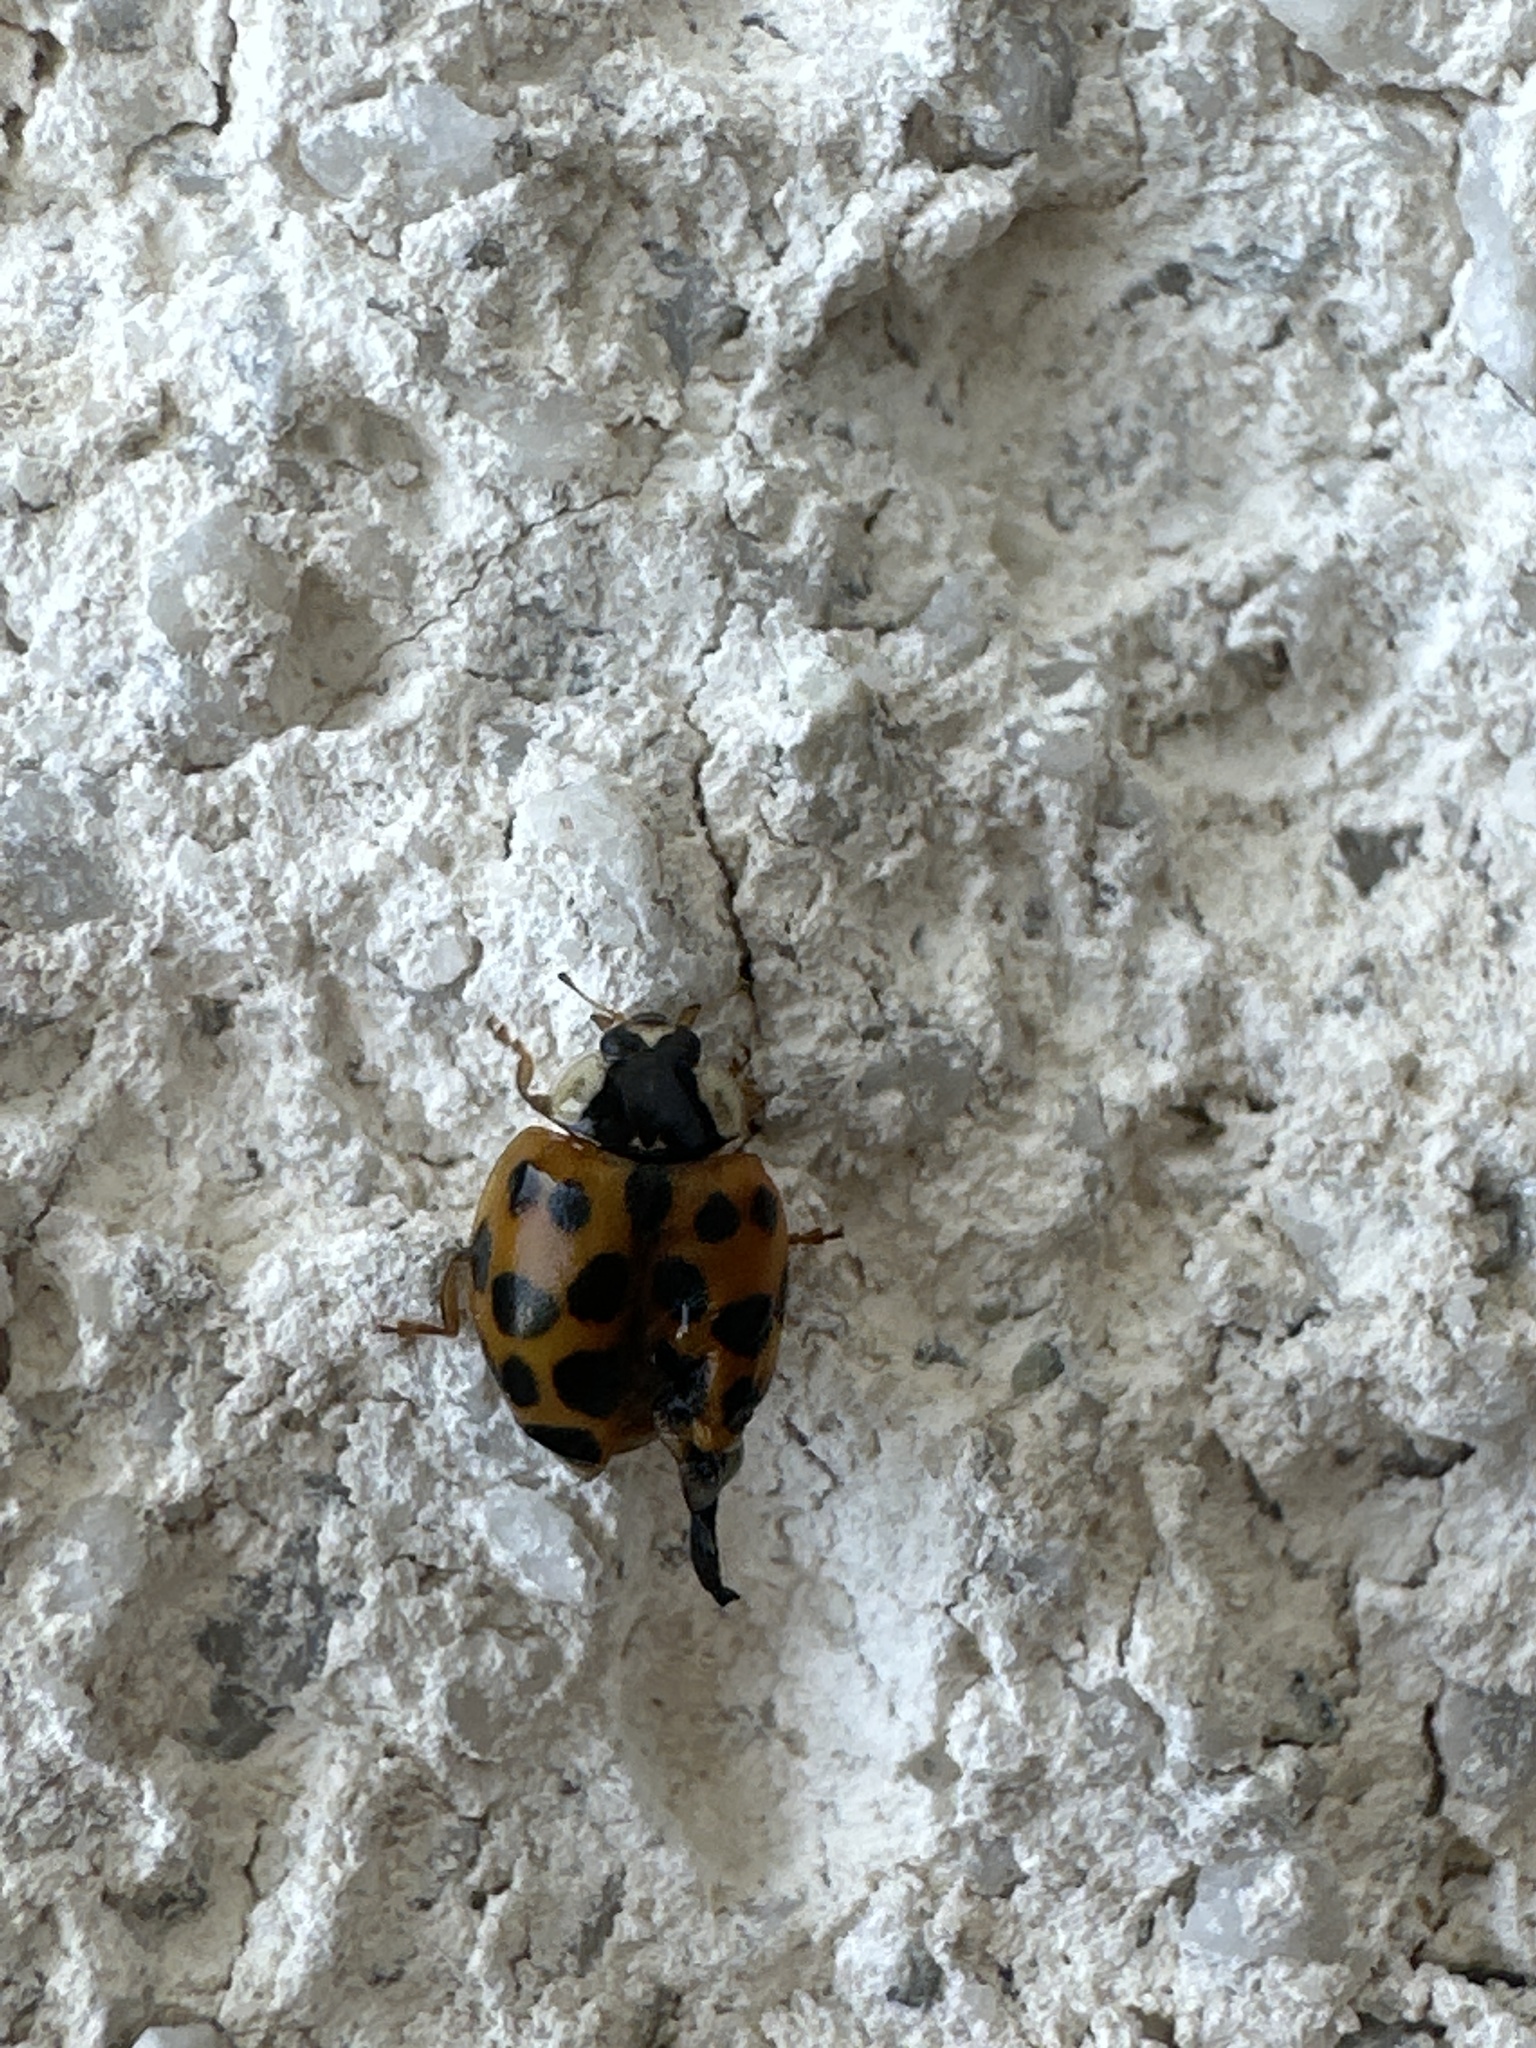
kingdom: Animalia
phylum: Arthropoda
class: Insecta
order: Coleoptera
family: Coccinellidae
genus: Harmonia
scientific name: Harmonia axyridis
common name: Harlequin ladybird
